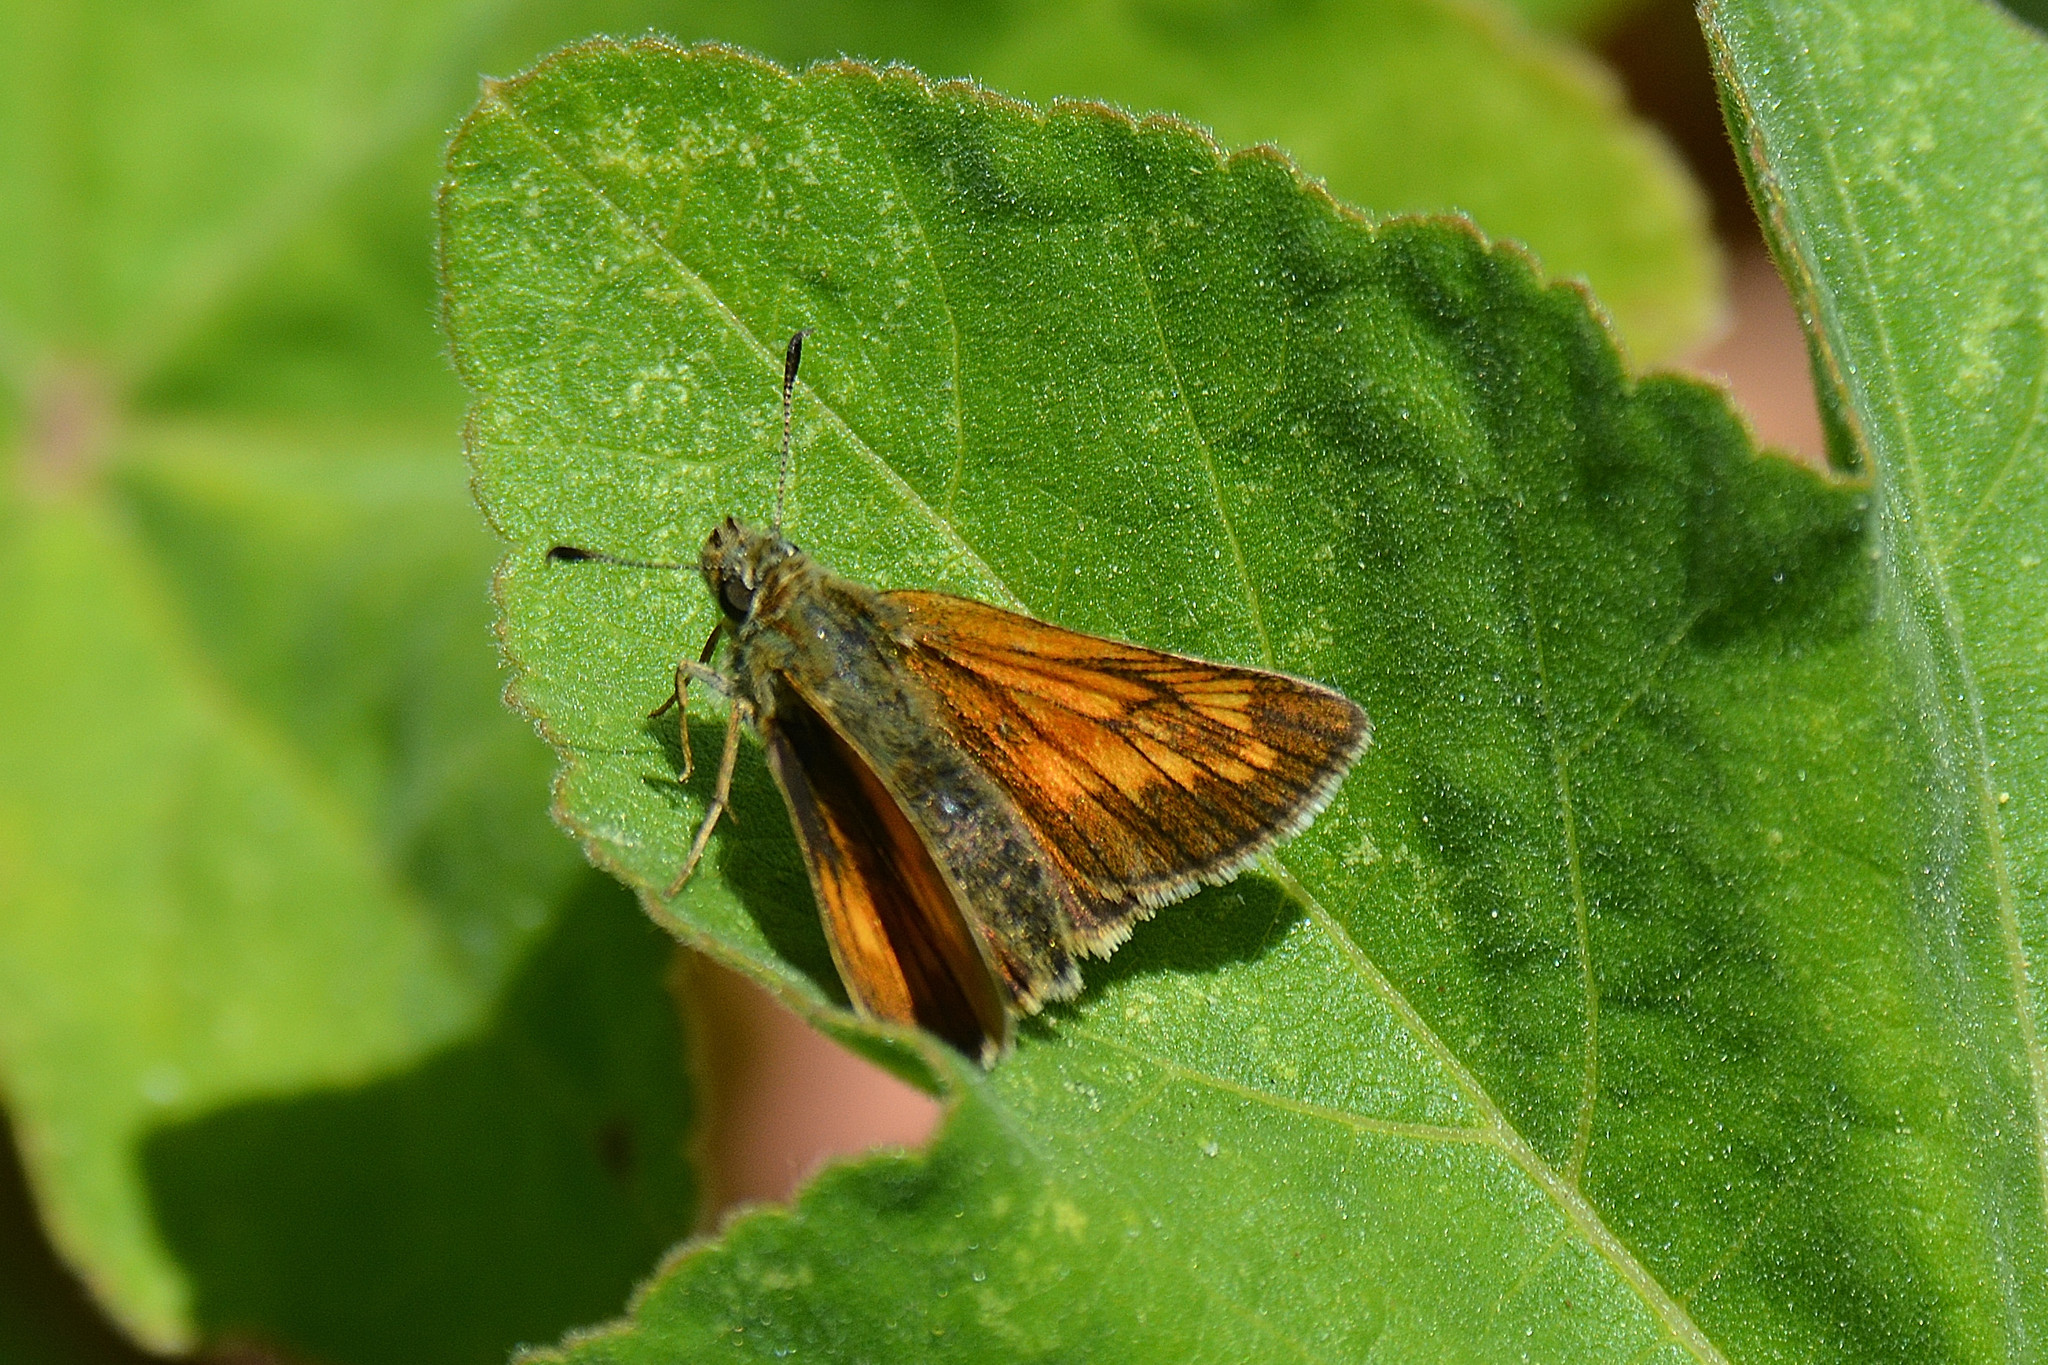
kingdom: Animalia
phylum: Arthropoda
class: Insecta
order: Lepidoptera
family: Hesperiidae
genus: Ochlodes
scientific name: Ochlodes venata
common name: Large skipper
